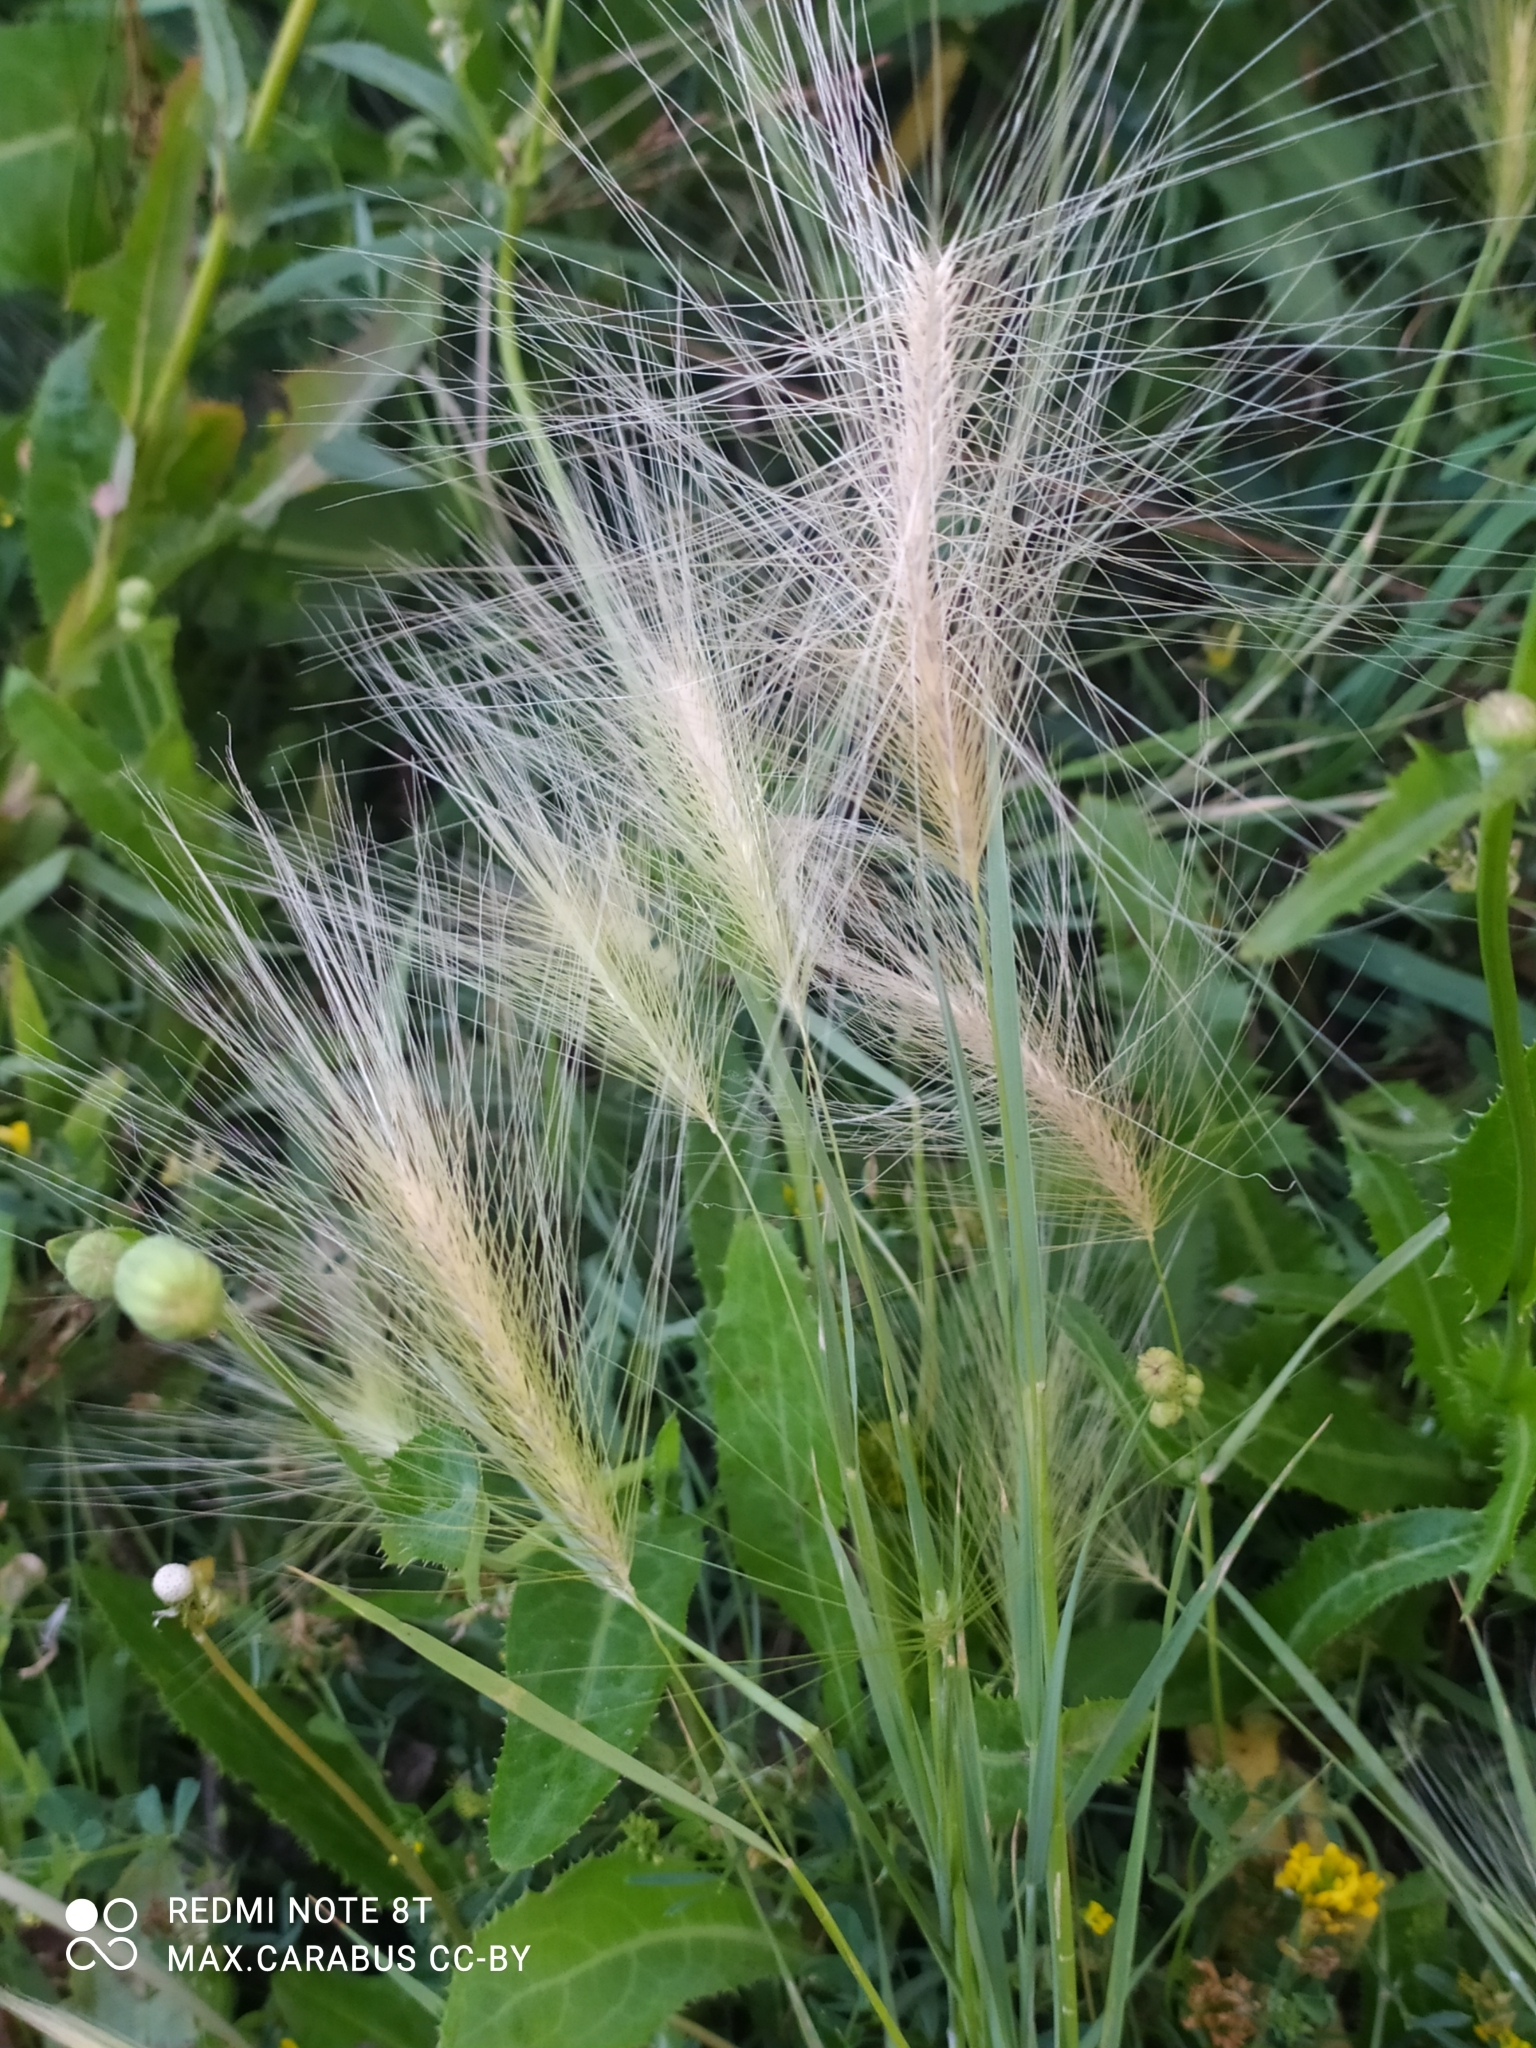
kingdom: Plantae
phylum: Tracheophyta
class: Liliopsida
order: Poales
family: Poaceae
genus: Hordeum
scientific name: Hordeum jubatum
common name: Foxtail barley
